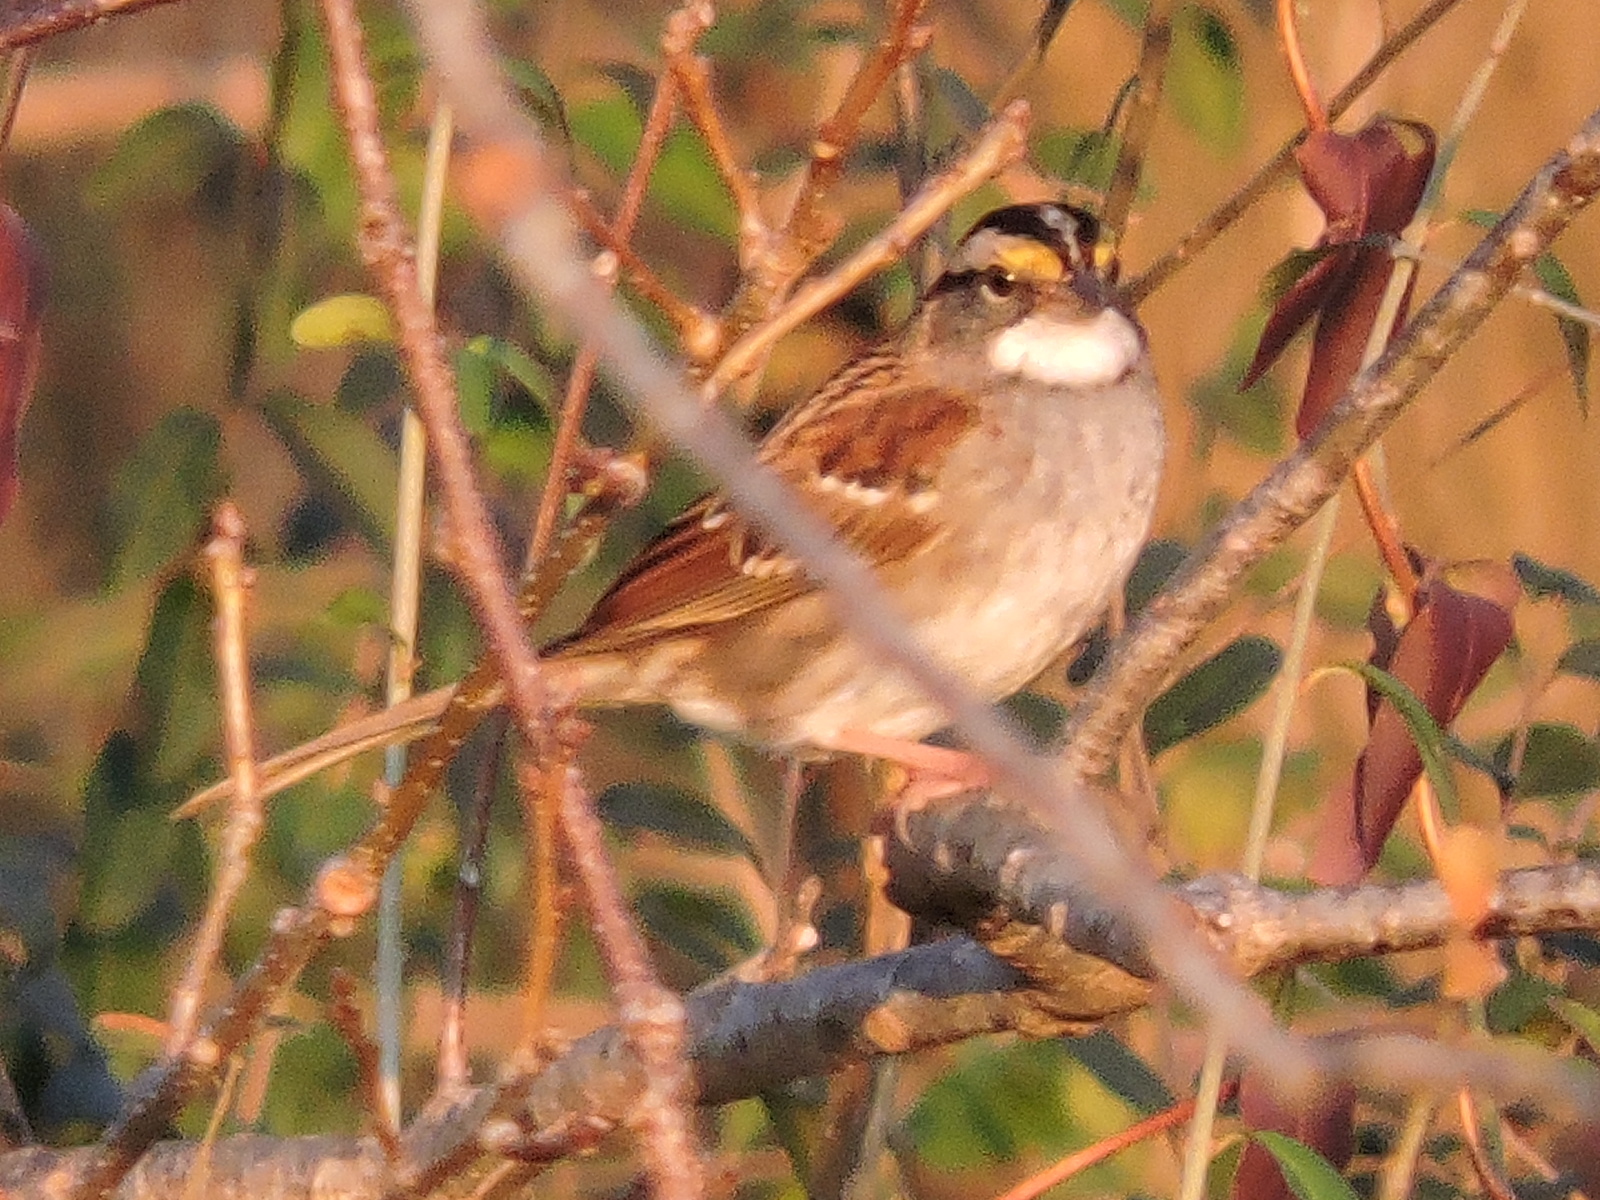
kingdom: Animalia
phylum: Chordata
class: Aves
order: Passeriformes
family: Passerellidae
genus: Zonotrichia
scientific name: Zonotrichia albicollis
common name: White-throated sparrow
